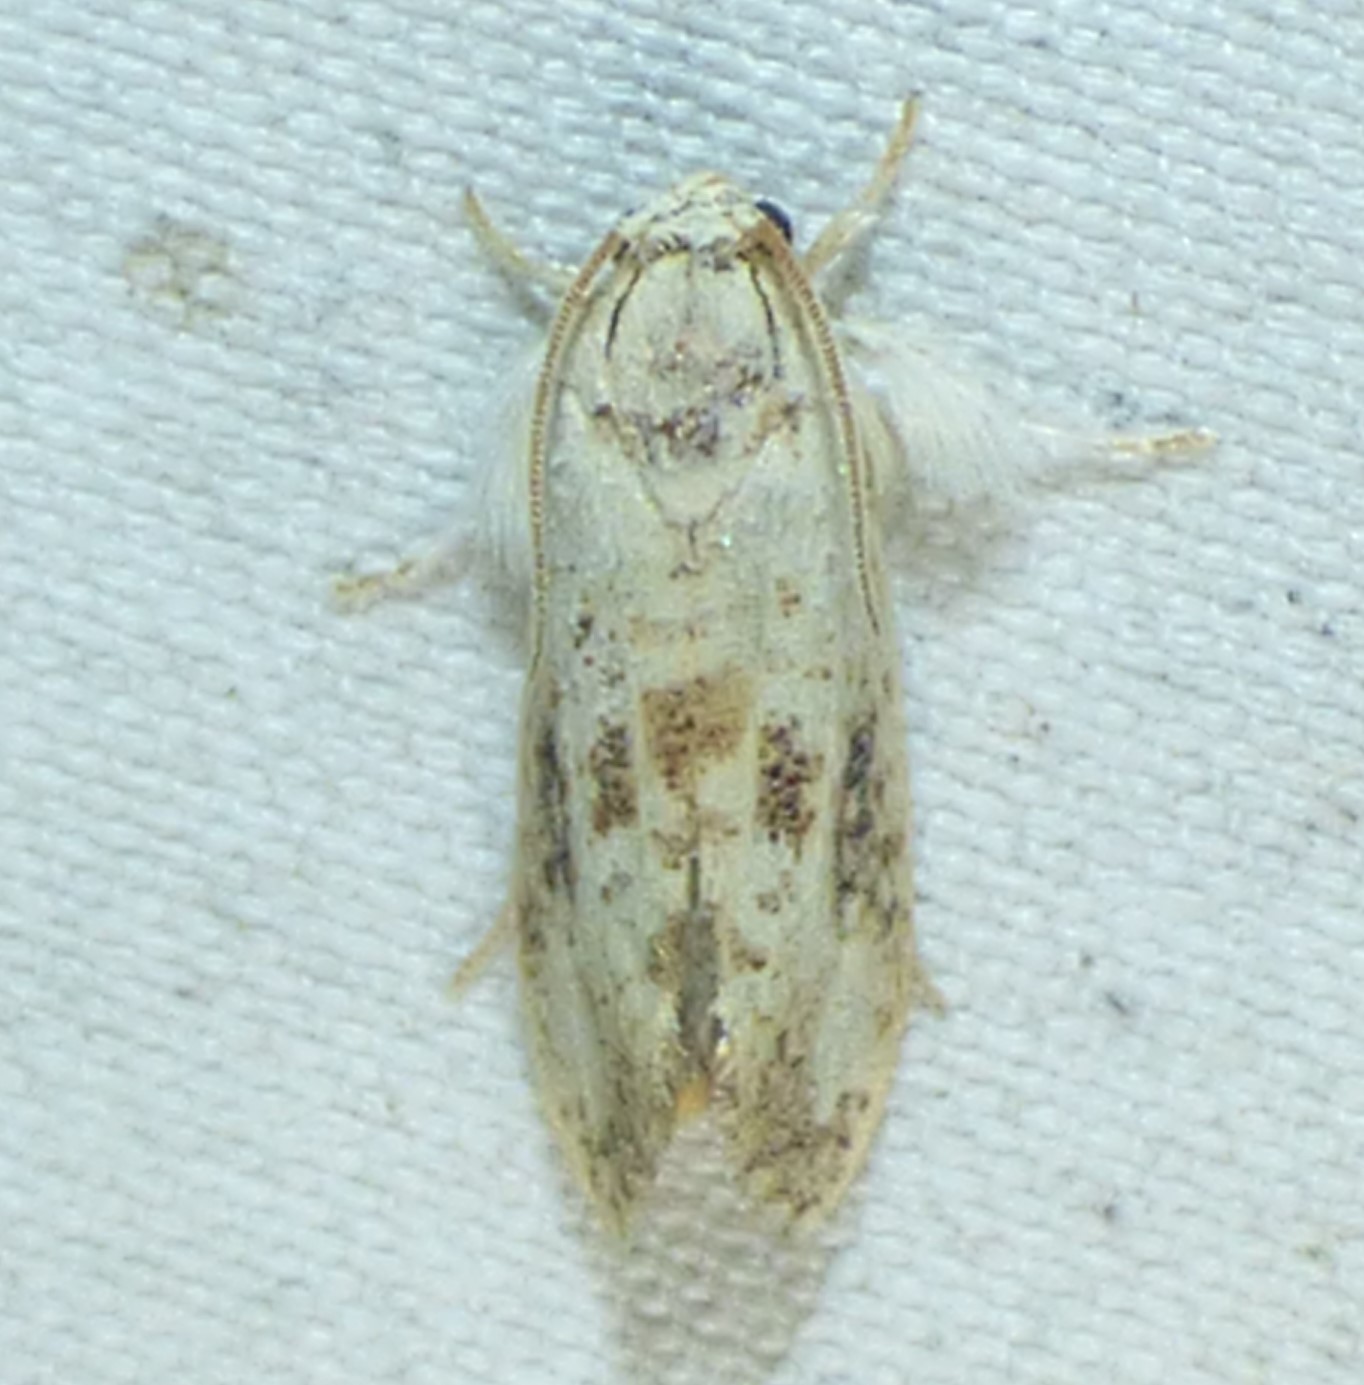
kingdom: Animalia
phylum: Arthropoda
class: Insecta
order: Lepidoptera
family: Tineidae
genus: Acrolophus
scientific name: Acrolophus mycetophagus
